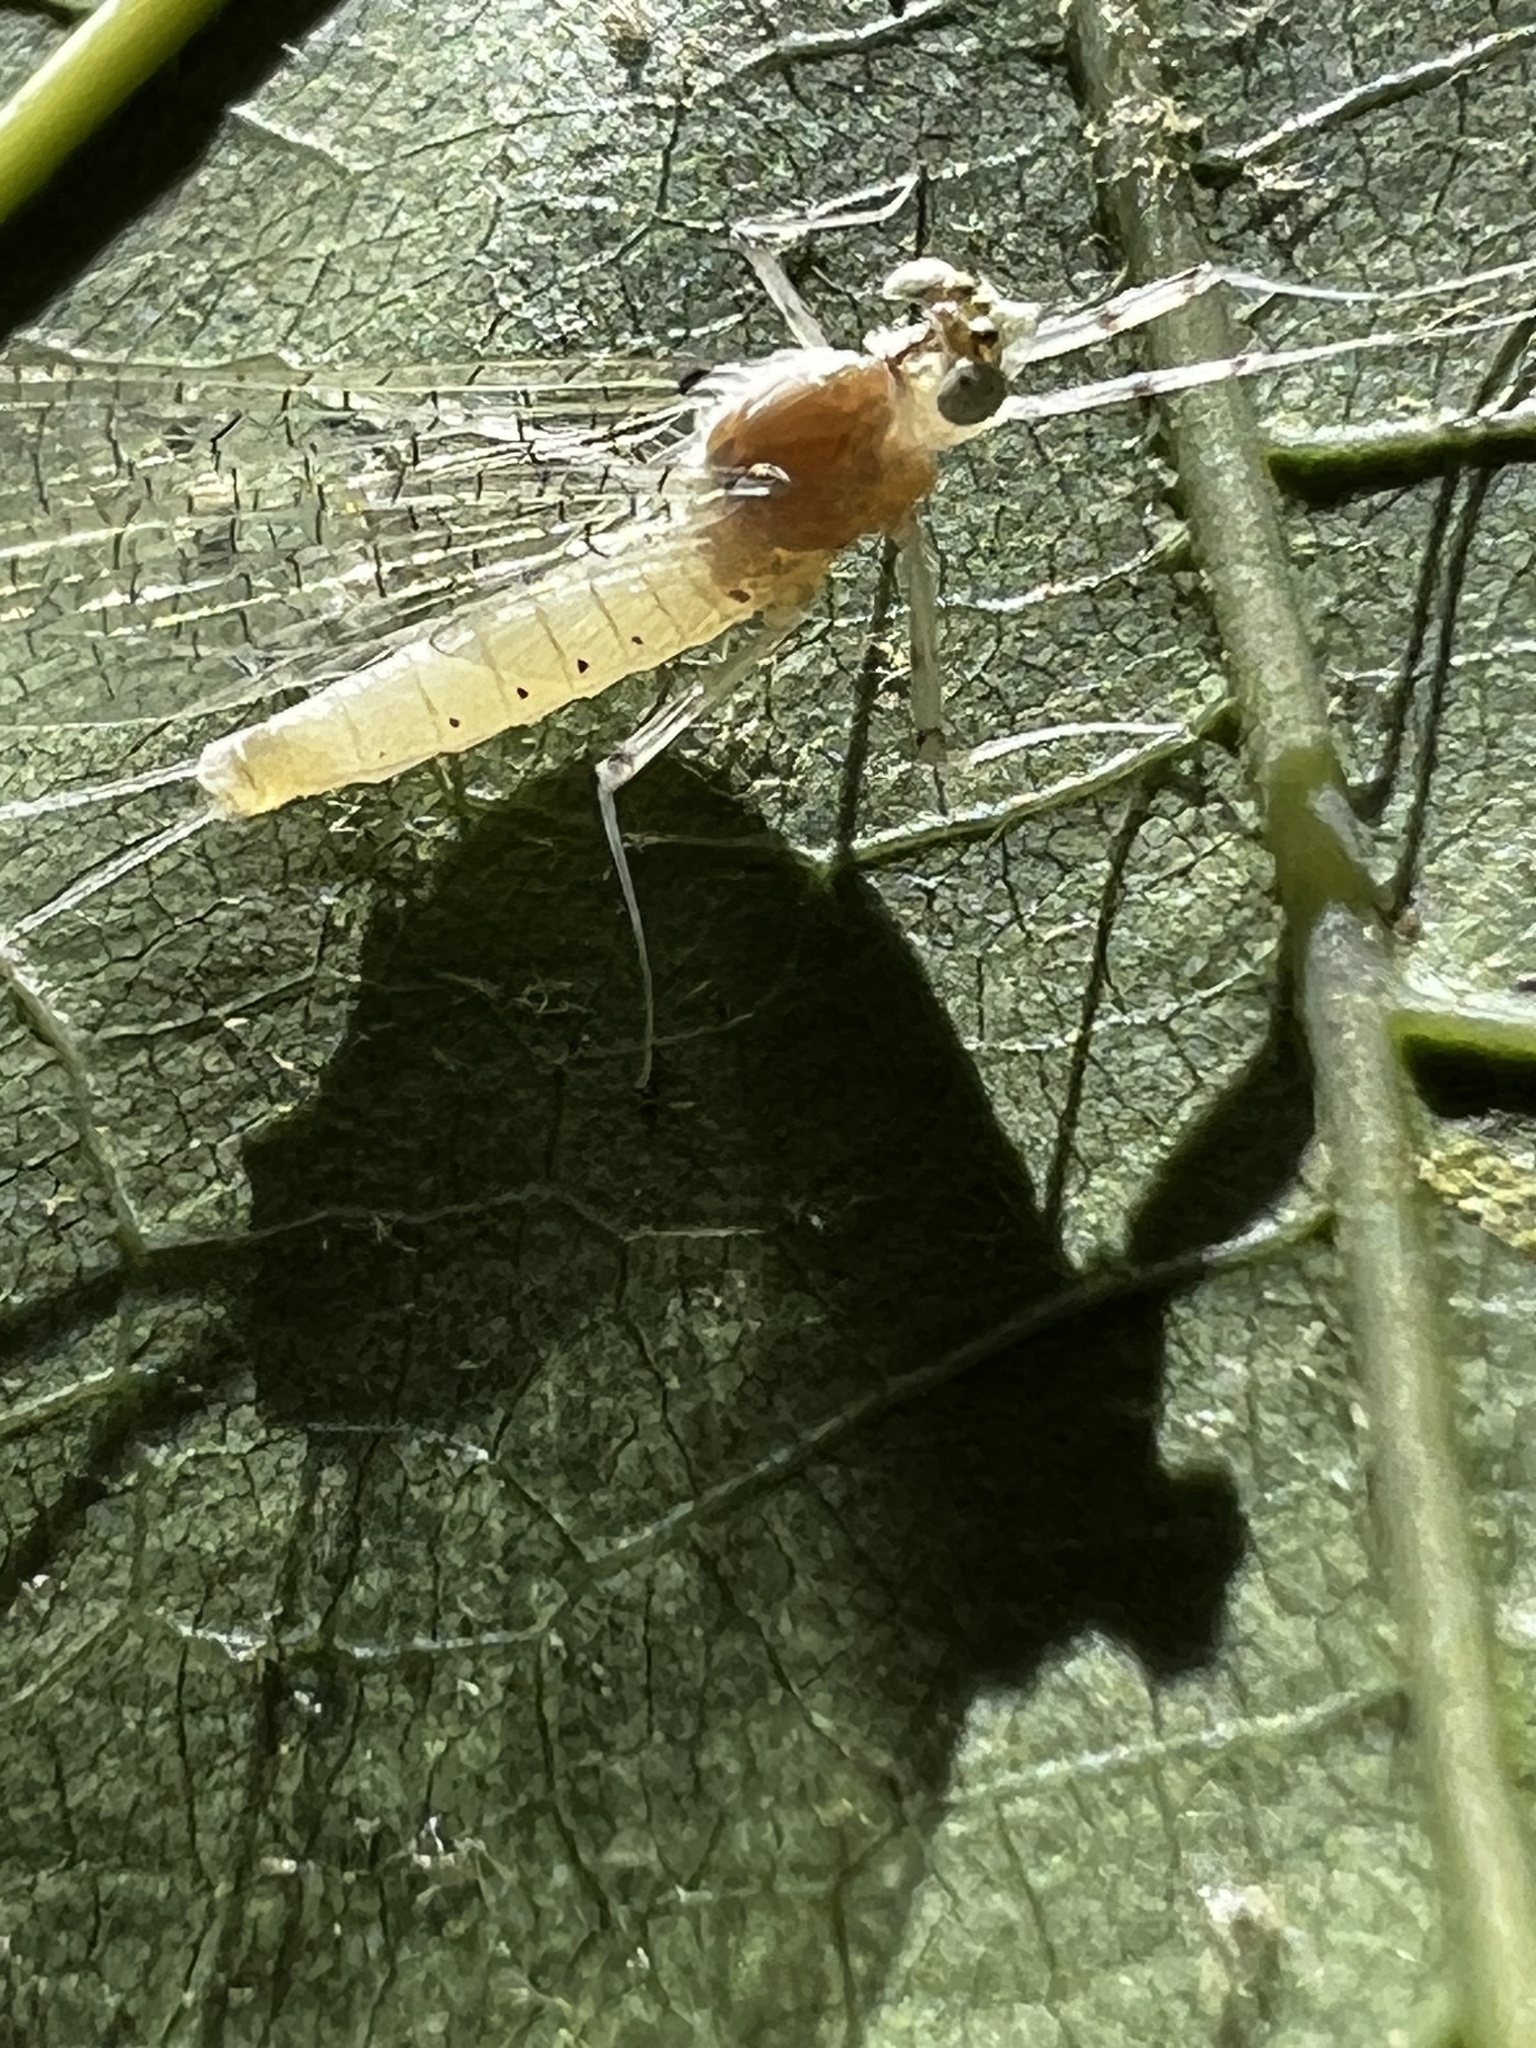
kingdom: Animalia
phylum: Arthropoda
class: Insecta
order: Ephemeroptera
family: Heptageniidae
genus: Maccaffertium
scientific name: Maccaffertium mediopunctatum
